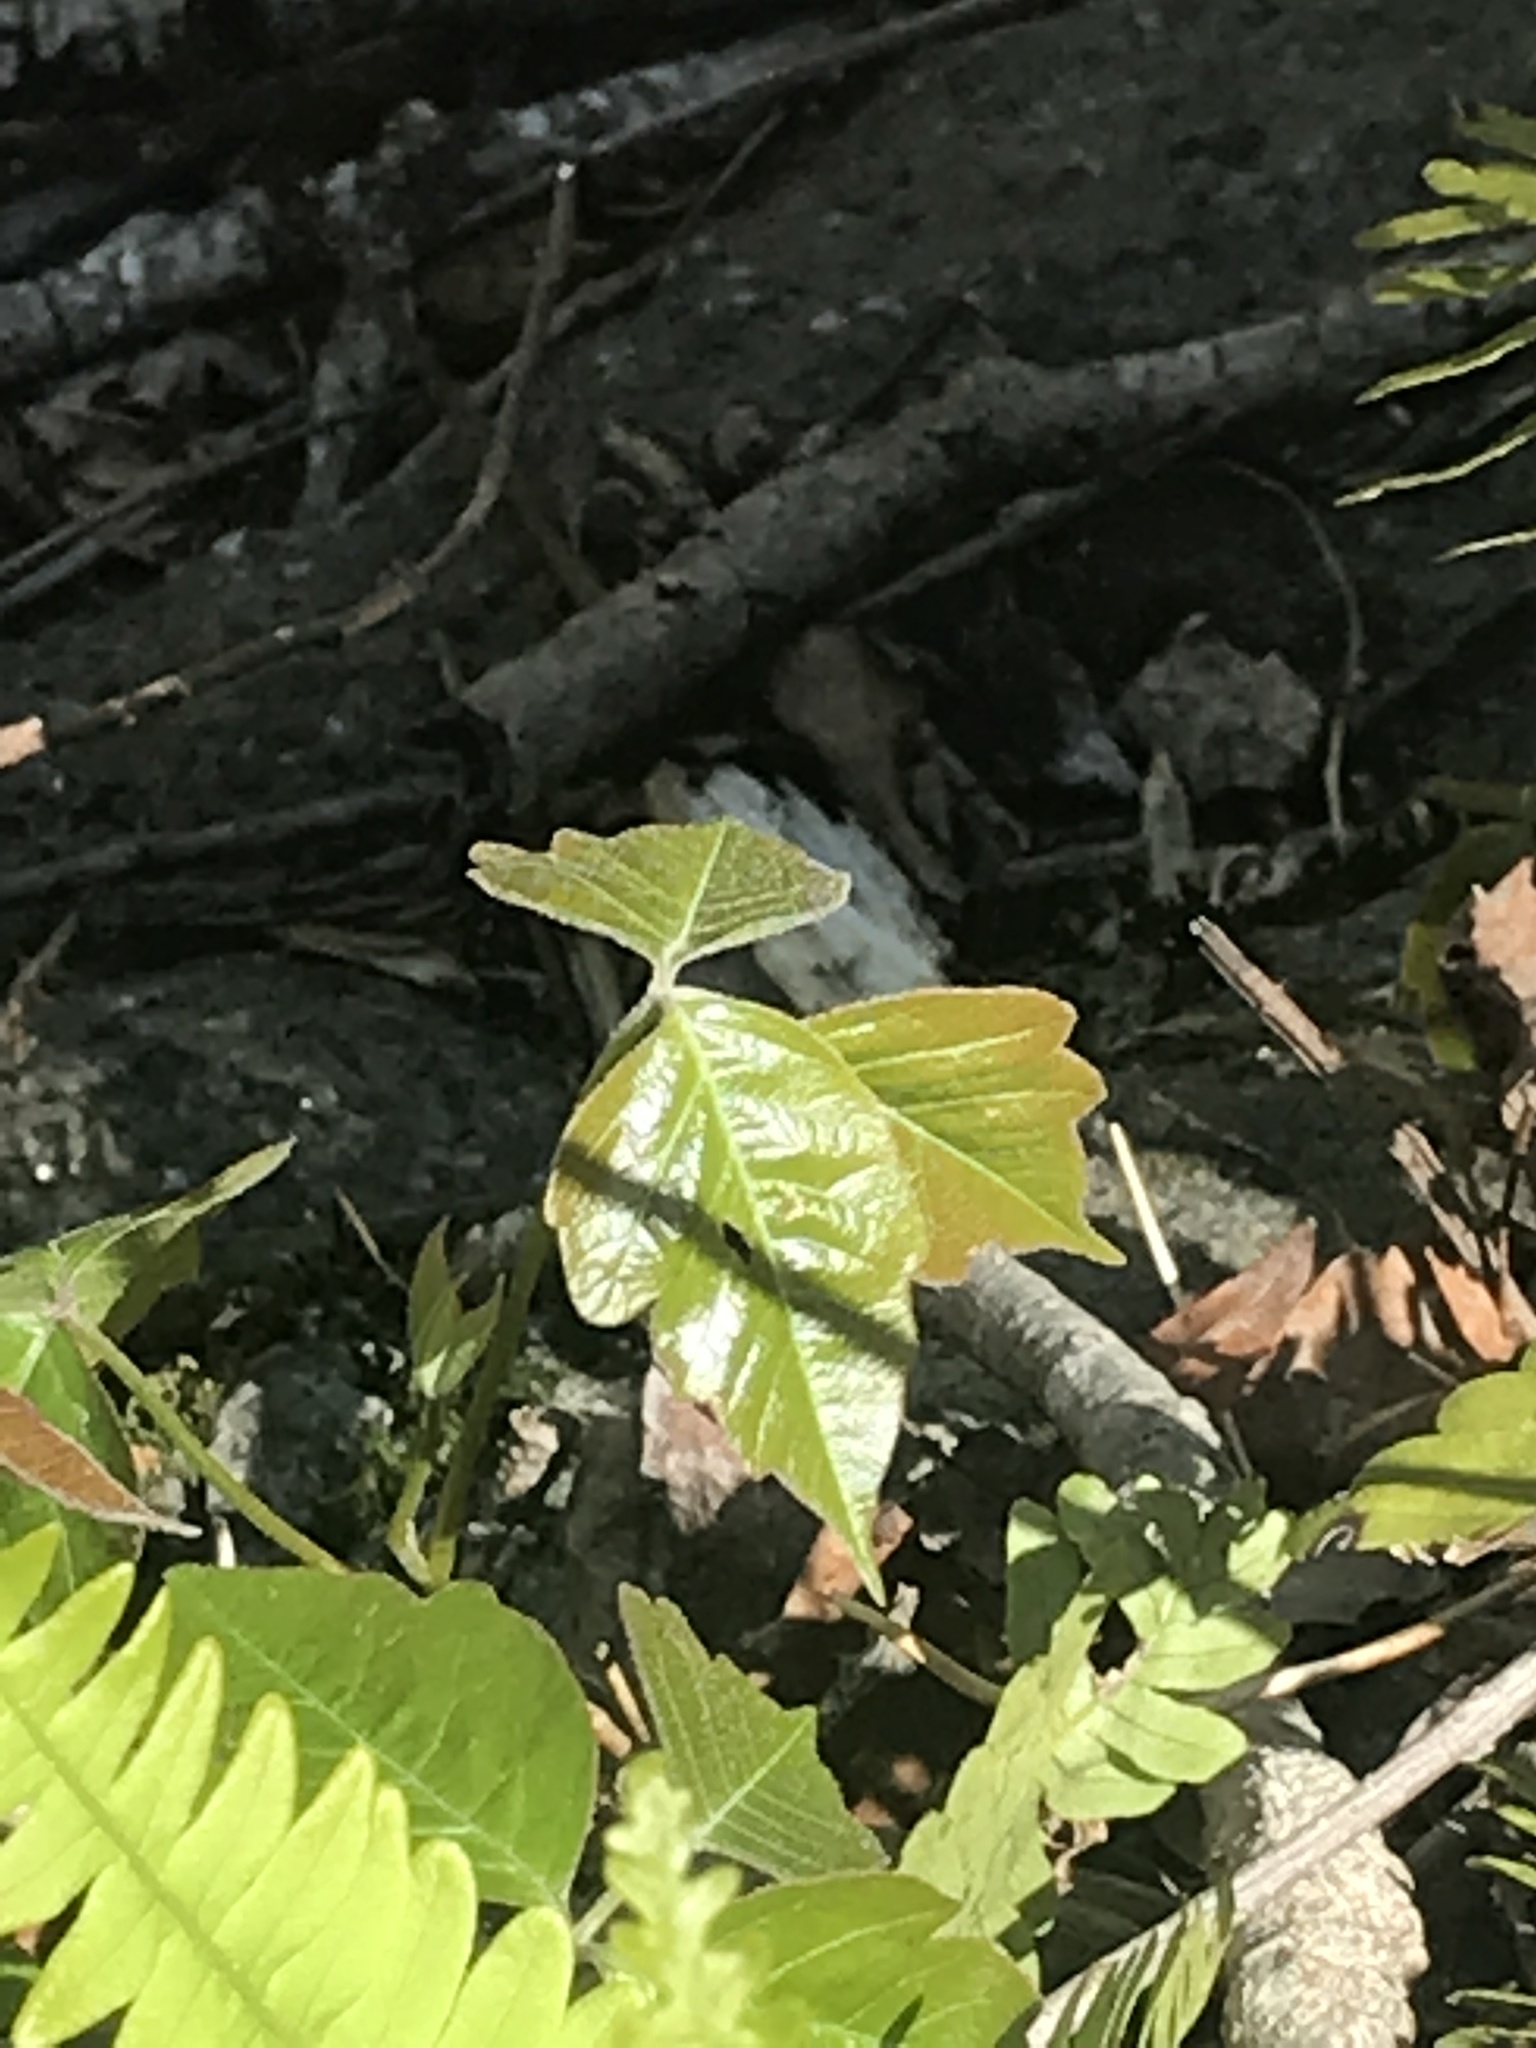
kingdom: Plantae
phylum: Tracheophyta
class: Magnoliopsida
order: Sapindales
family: Anacardiaceae
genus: Toxicodendron
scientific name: Toxicodendron radicans
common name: Poison ivy
